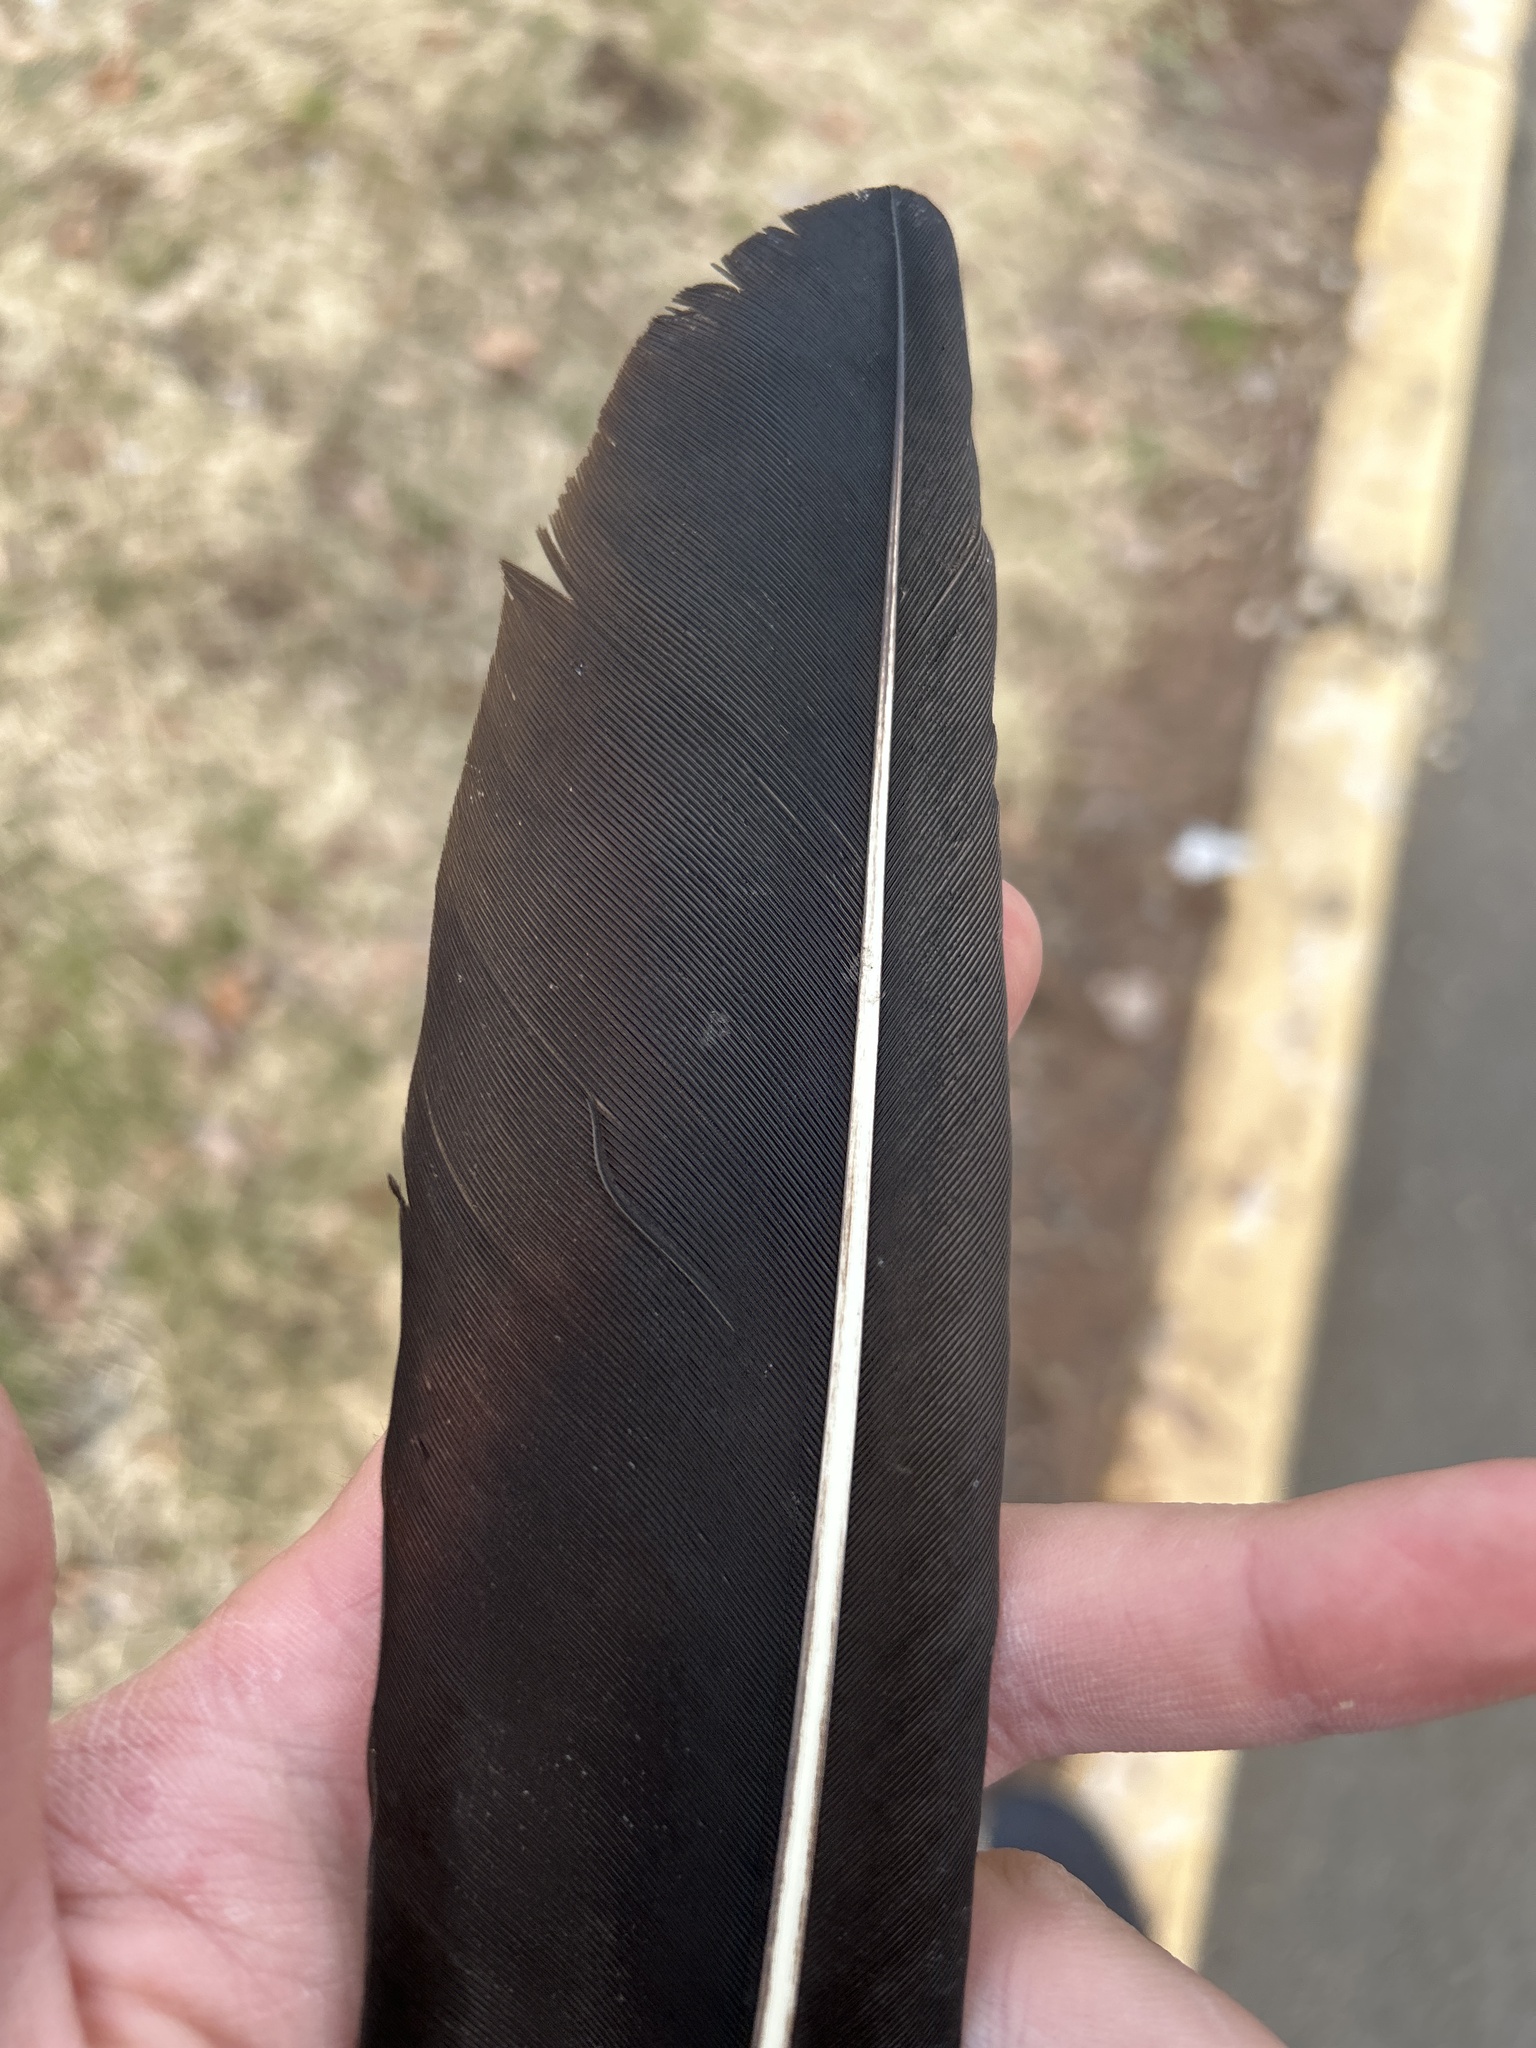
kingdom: Animalia
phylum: Chordata
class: Aves
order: Accipitriformes
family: Cathartidae
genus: Coragyps
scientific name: Coragyps atratus
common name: Black vulture
